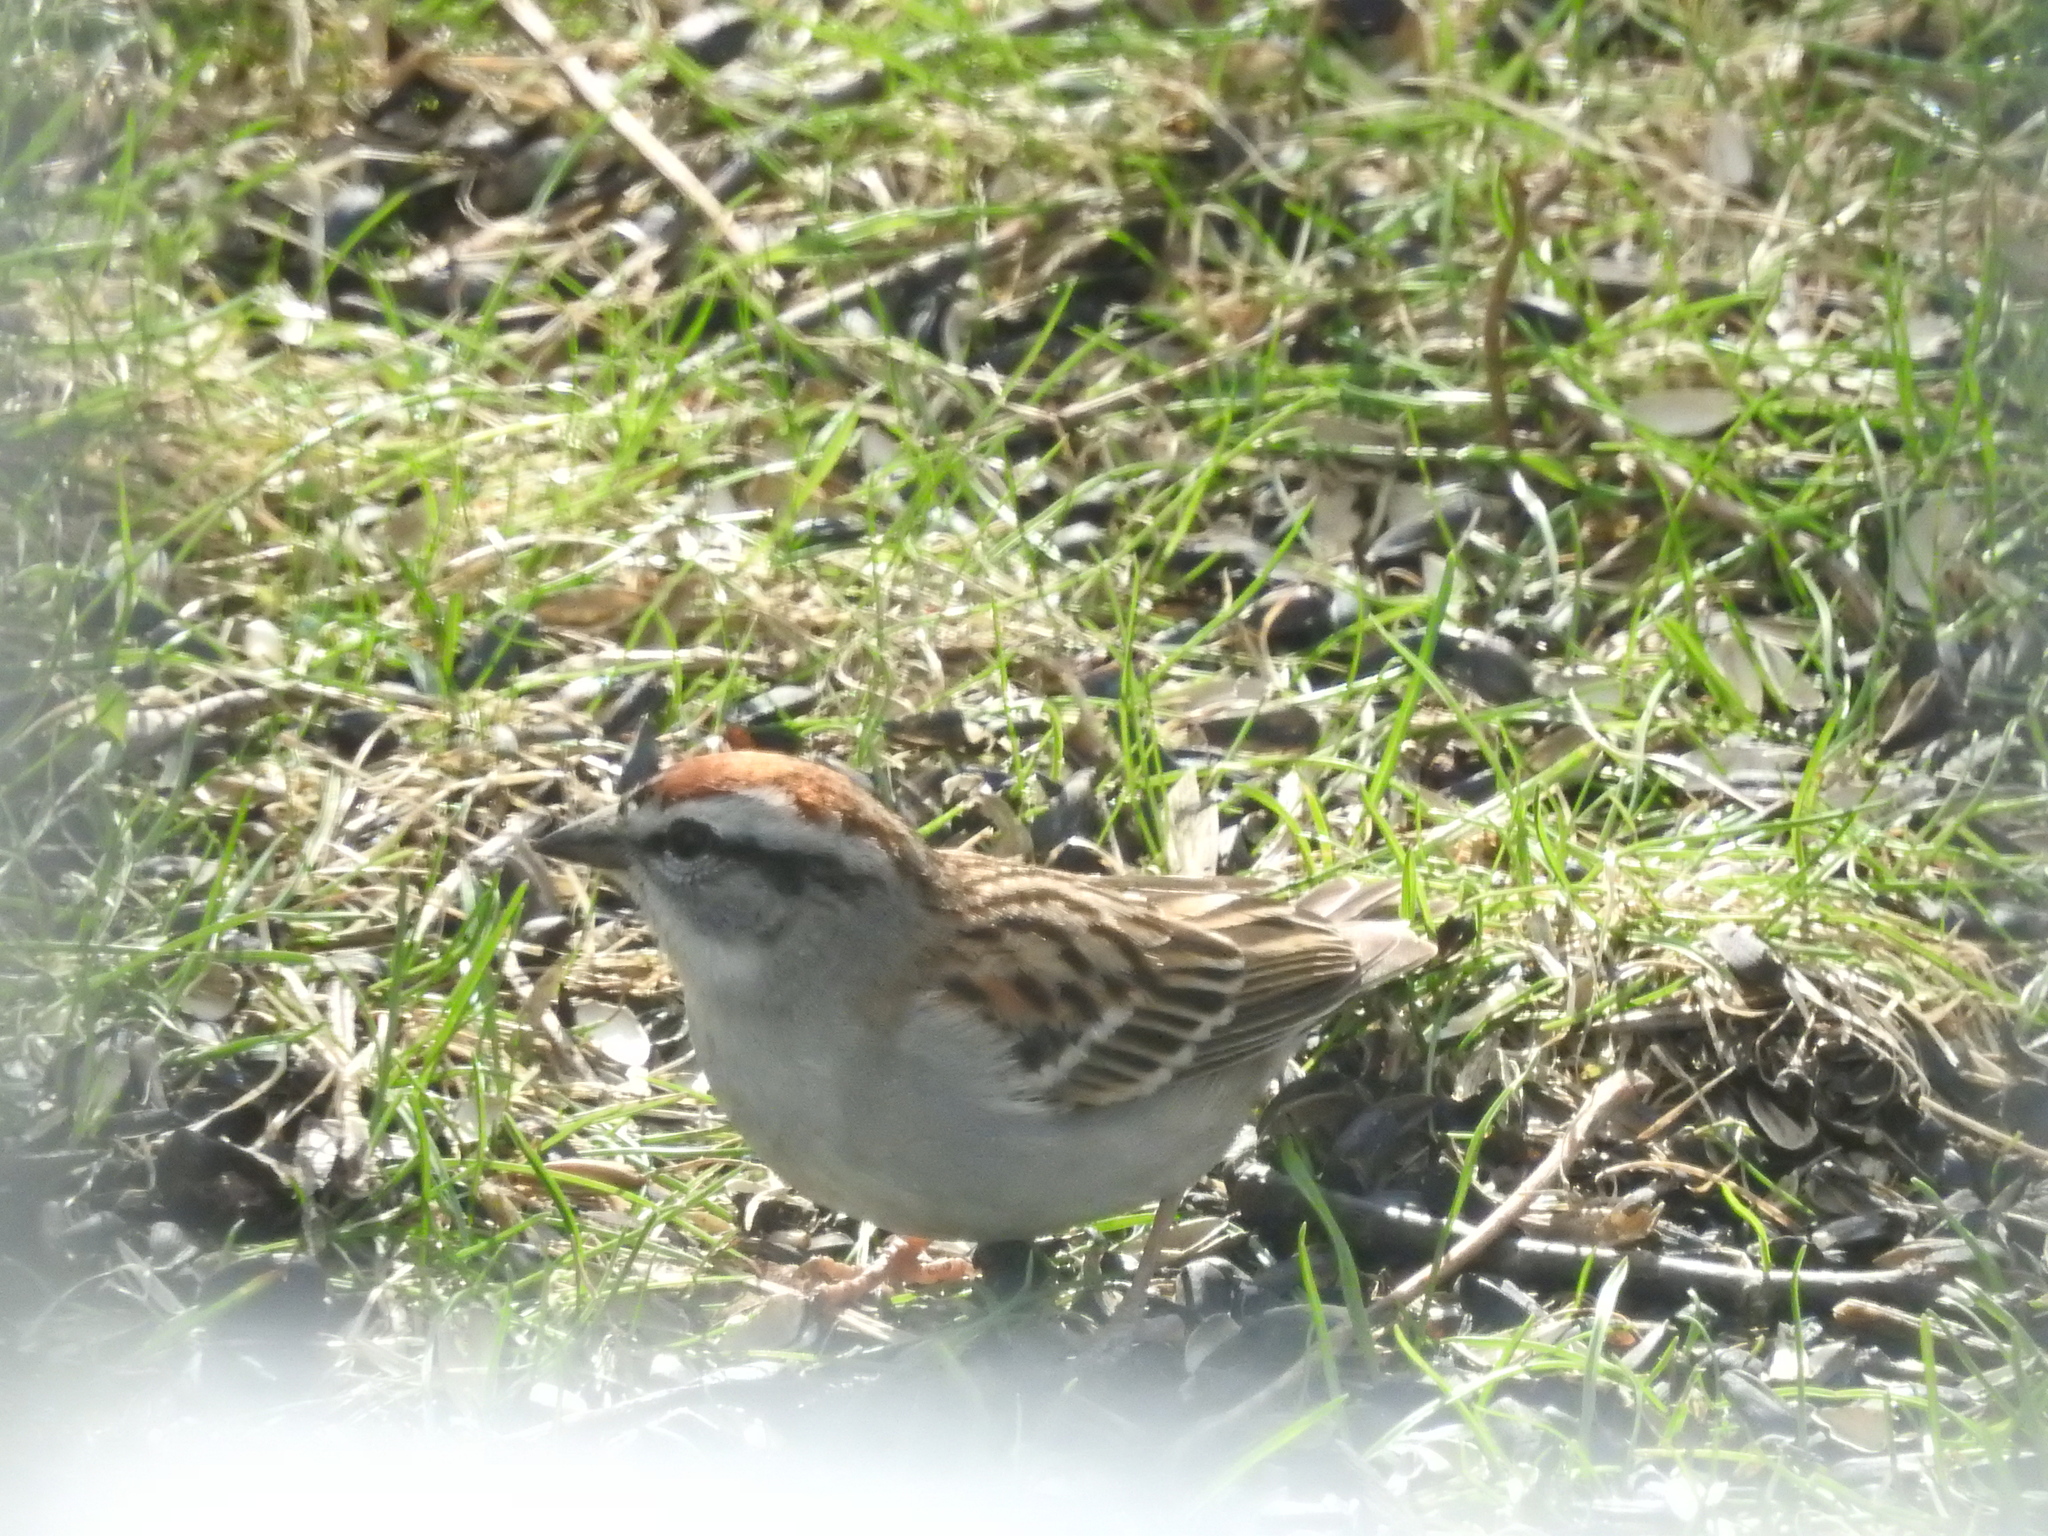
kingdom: Animalia
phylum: Chordata
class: Aves
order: Passeriformes
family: Passerellidae
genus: Spizella
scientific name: Spizella passerina
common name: Chipping sparrow
